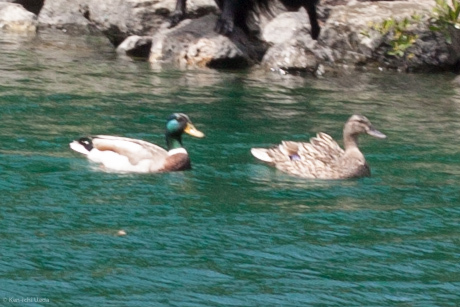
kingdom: Animalia
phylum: Chordata
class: Aves
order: Anseriformes
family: Anatidae
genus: Anas
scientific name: Anas platyrhynchos
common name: Mallard
